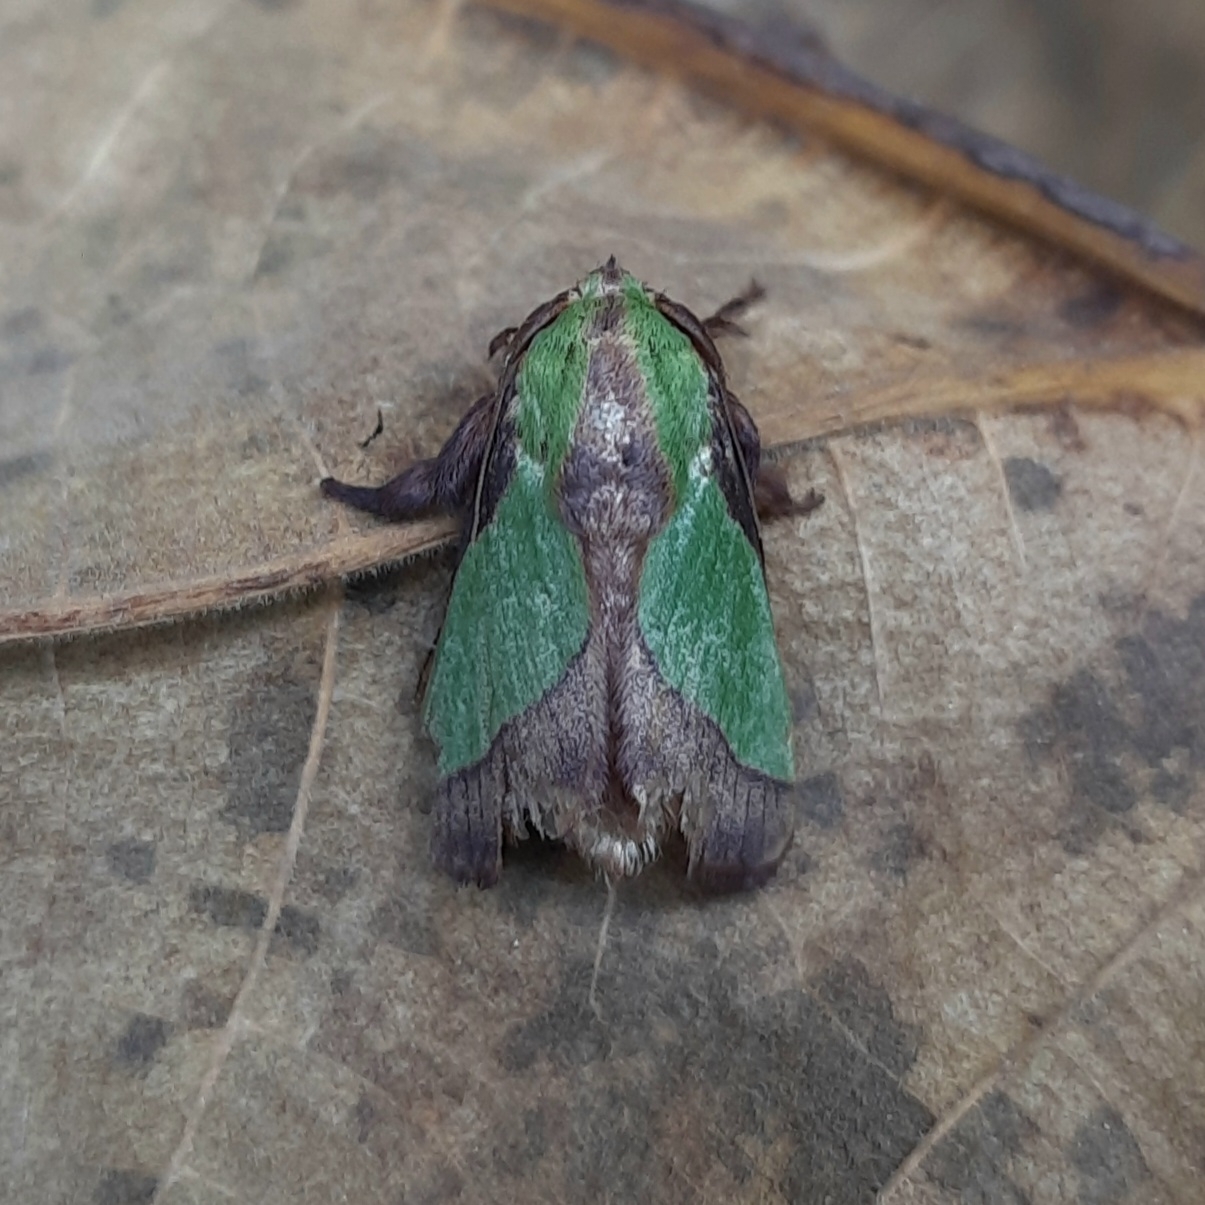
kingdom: Animalia
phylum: Arthropoda
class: Insecta
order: Lepidoptera
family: Limacodidae
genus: Parasa
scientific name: Parasa lepida
